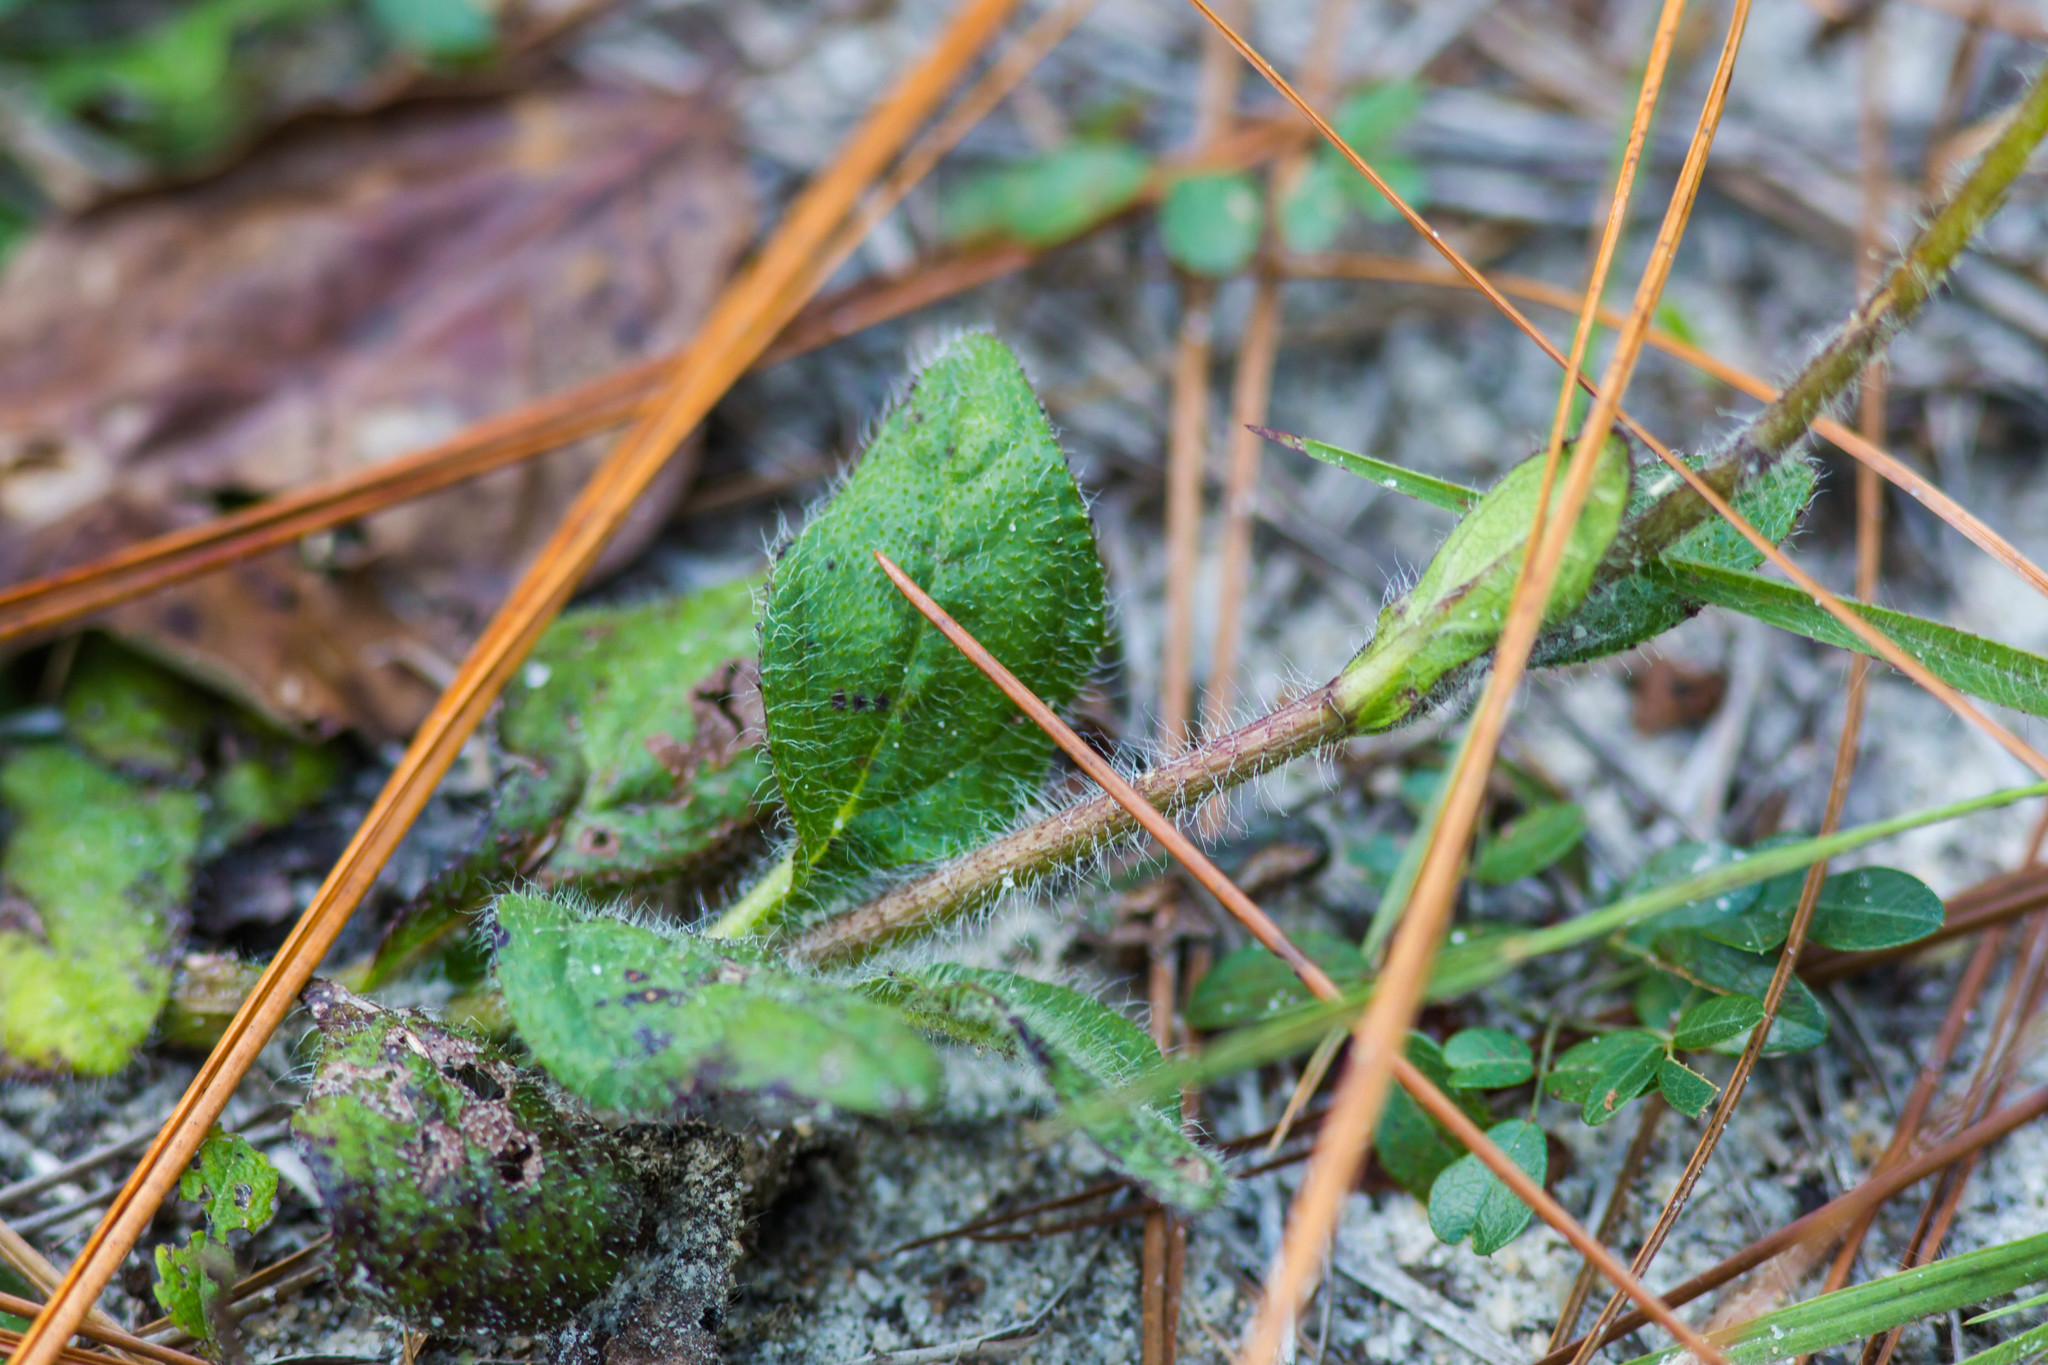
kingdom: Plantae
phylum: Tracheophyta
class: Magnoliopsida
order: Asterales
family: Asteraceae
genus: Helianthus
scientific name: Helianthus radula
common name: Pineland sunflower
